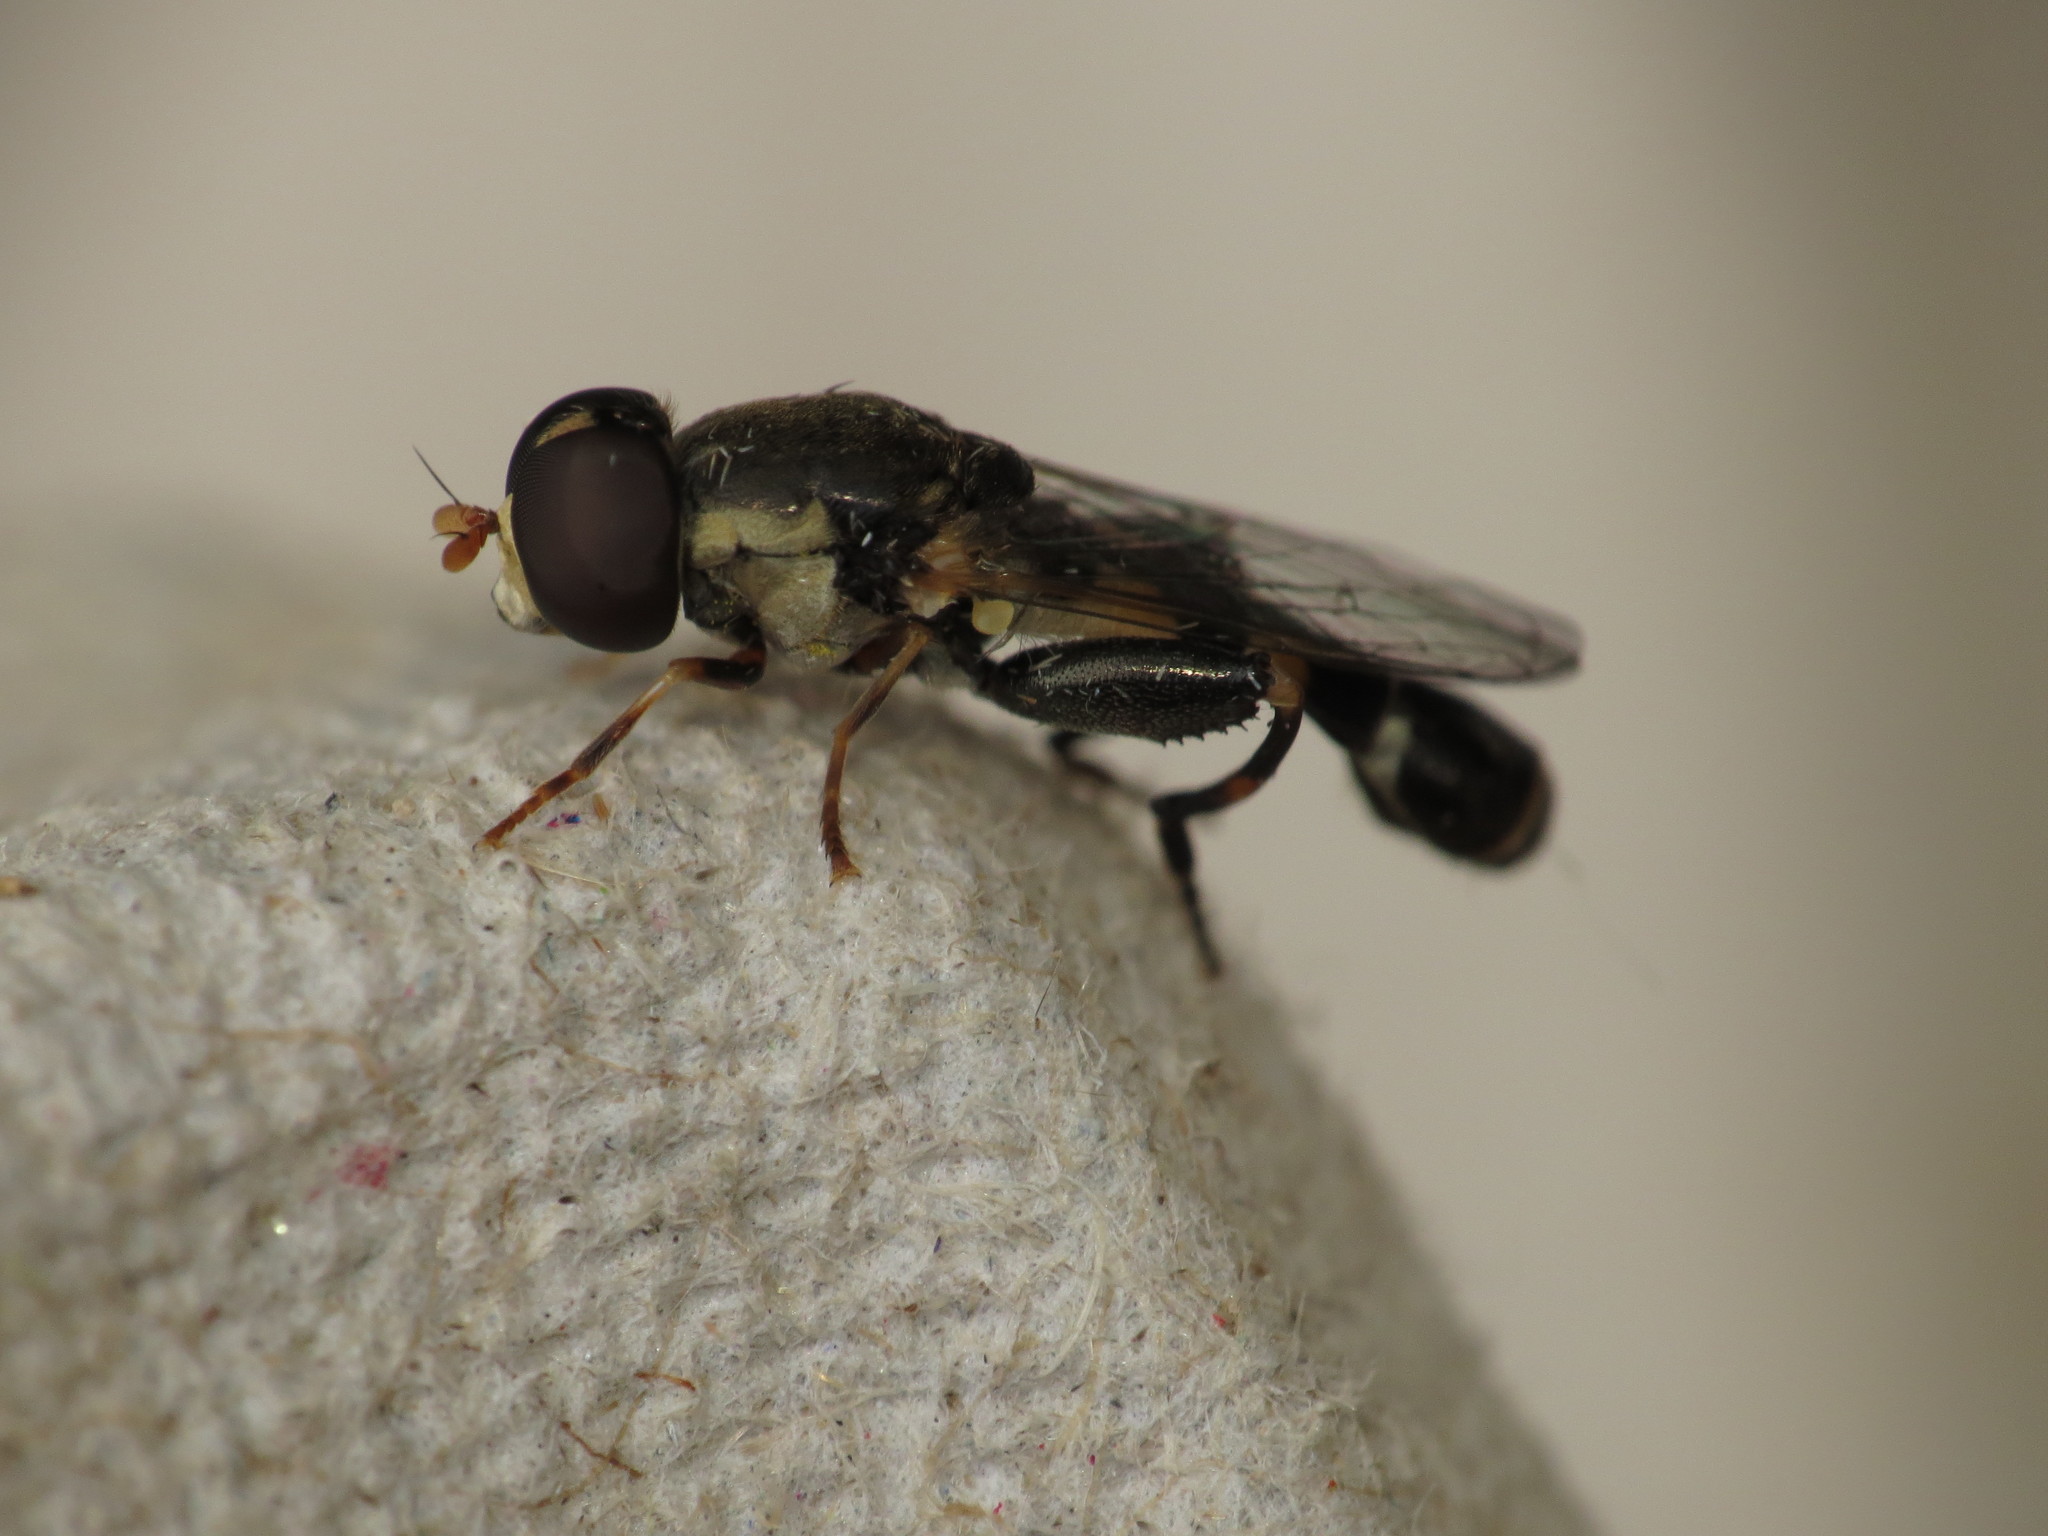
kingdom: Animalia
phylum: Arthropoda
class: Insecta
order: Diptera
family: Syrphidae
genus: Syritta
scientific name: Syritta pipiens
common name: Hover fly
